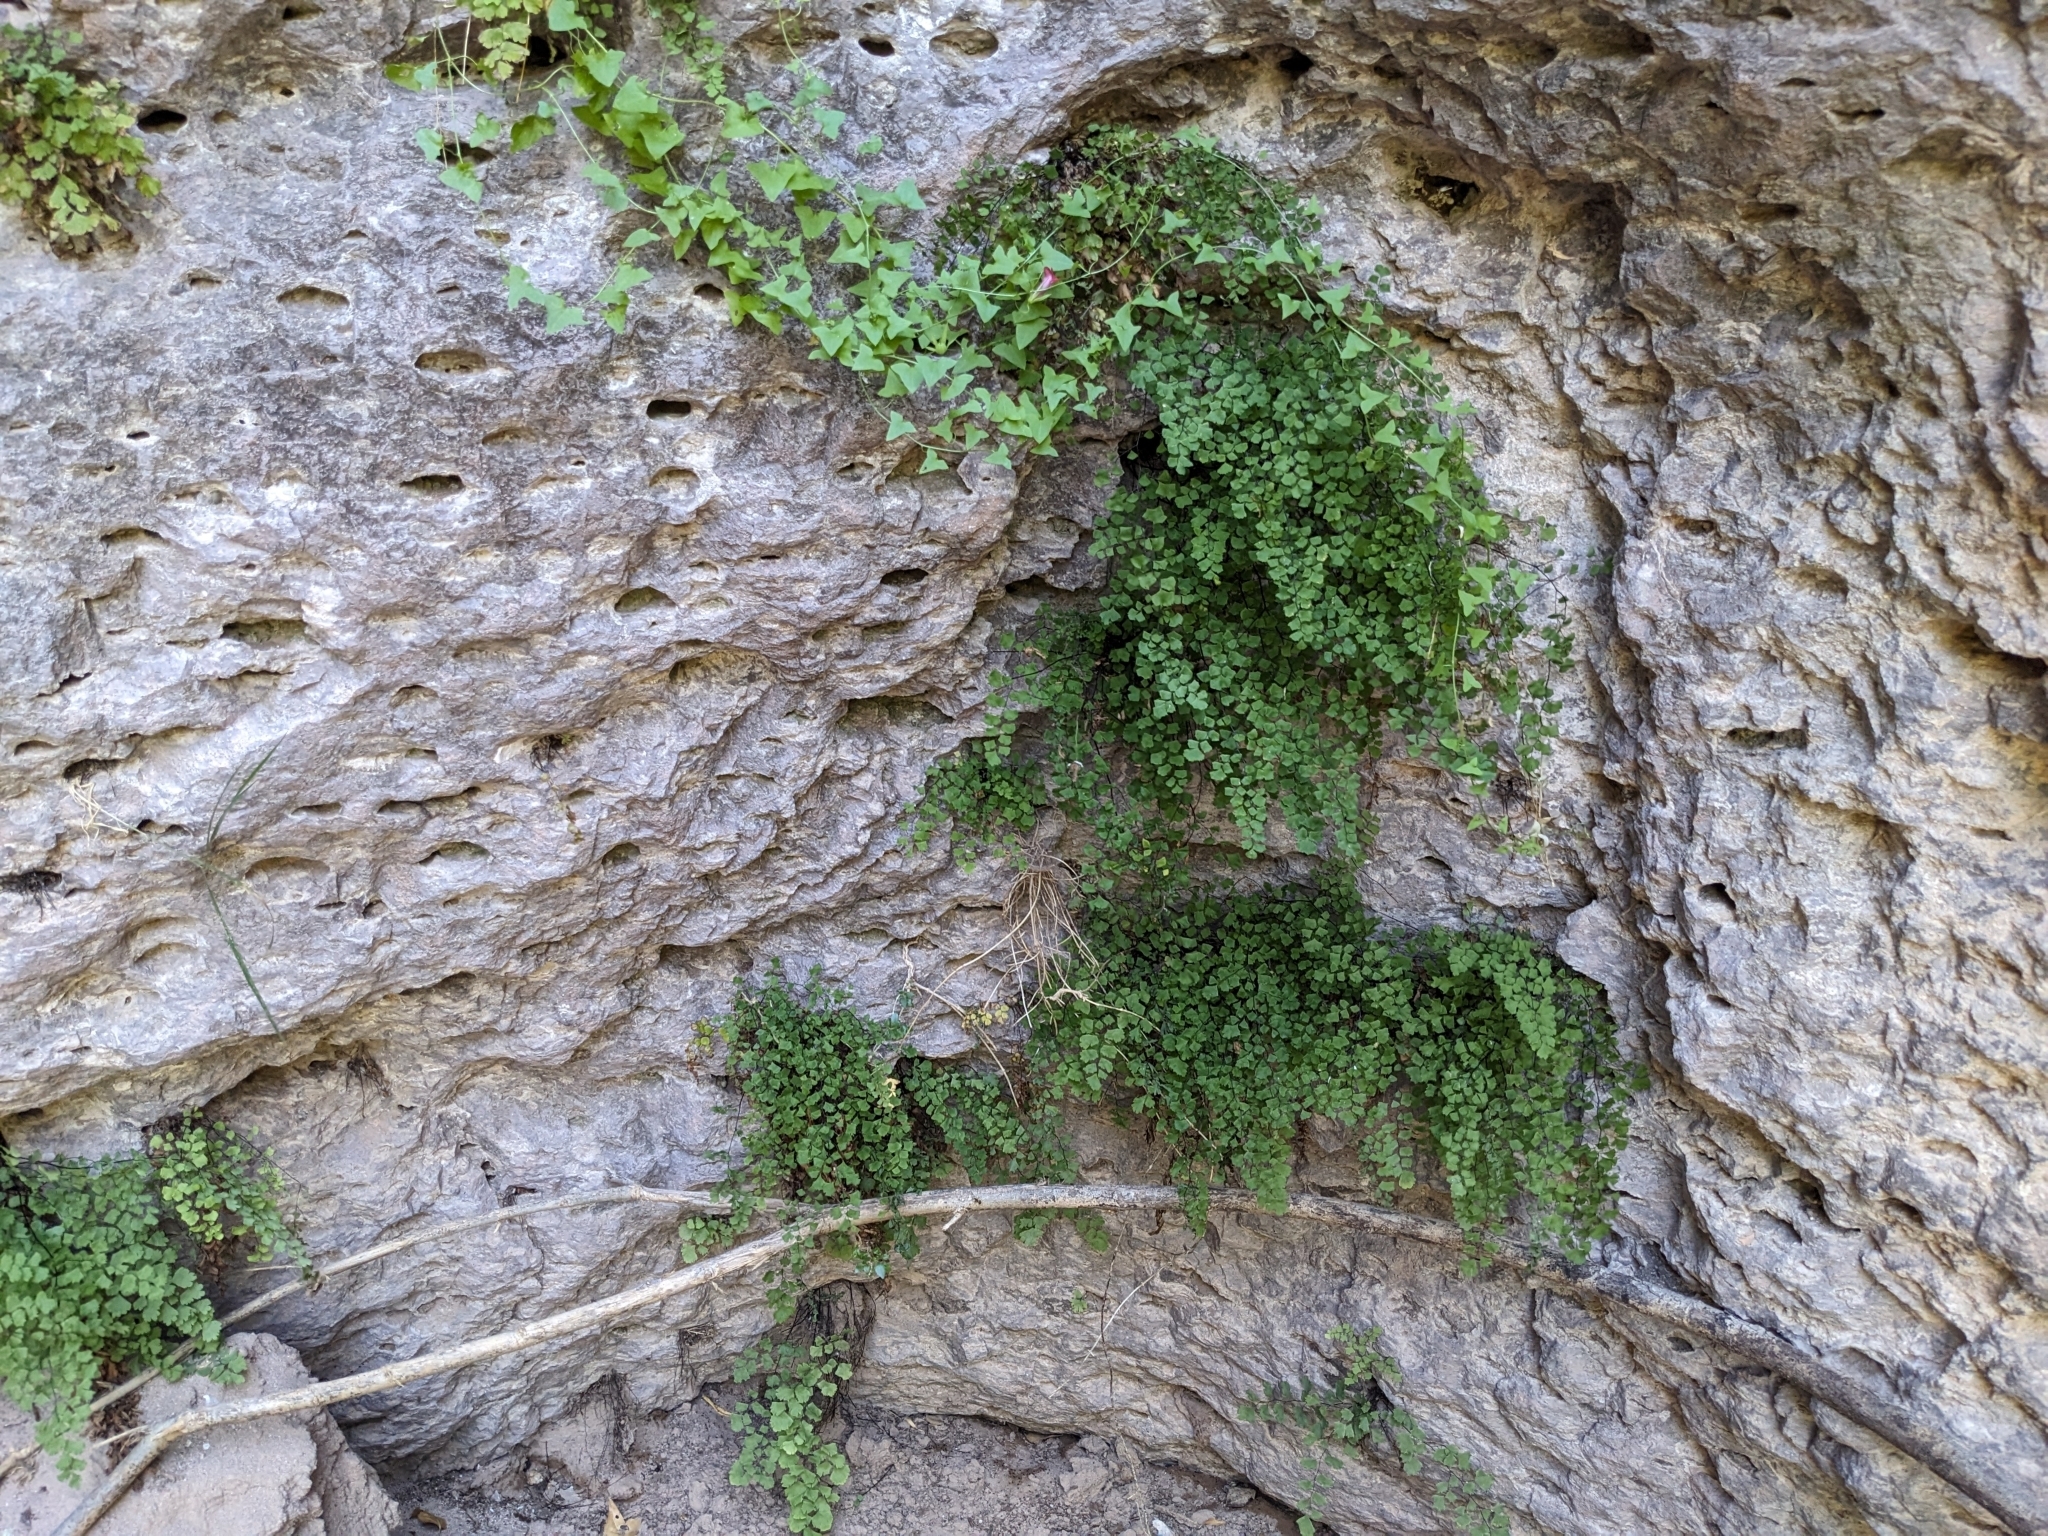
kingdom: Plantae
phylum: Tracheophyta
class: Polypodiopsida
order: Polypodiales
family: Pteridaceae
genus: Adiantum
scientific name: Adiantum capillus-veneris
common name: Maidenhair fern
